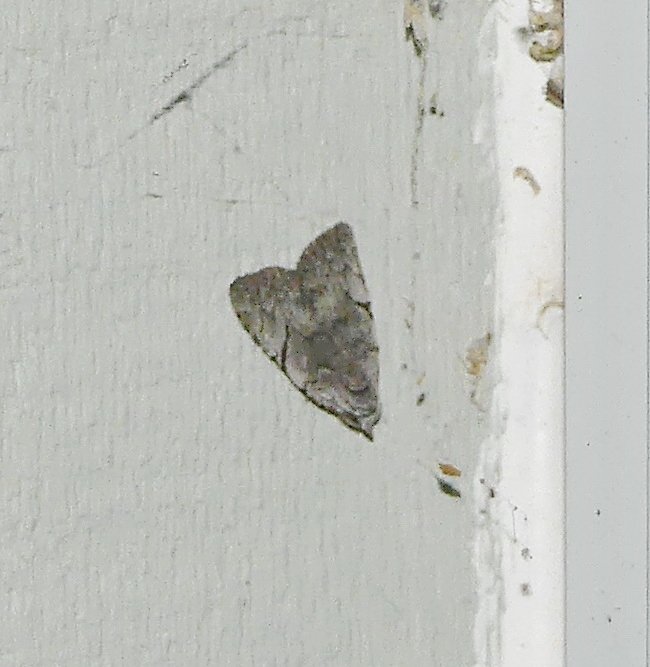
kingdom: Animalia
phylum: Arthropoda
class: Insecta
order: Lepidoptera
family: Noctuidae
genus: Balsa
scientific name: Balsa malana
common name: Many-dotted appleworm moth
